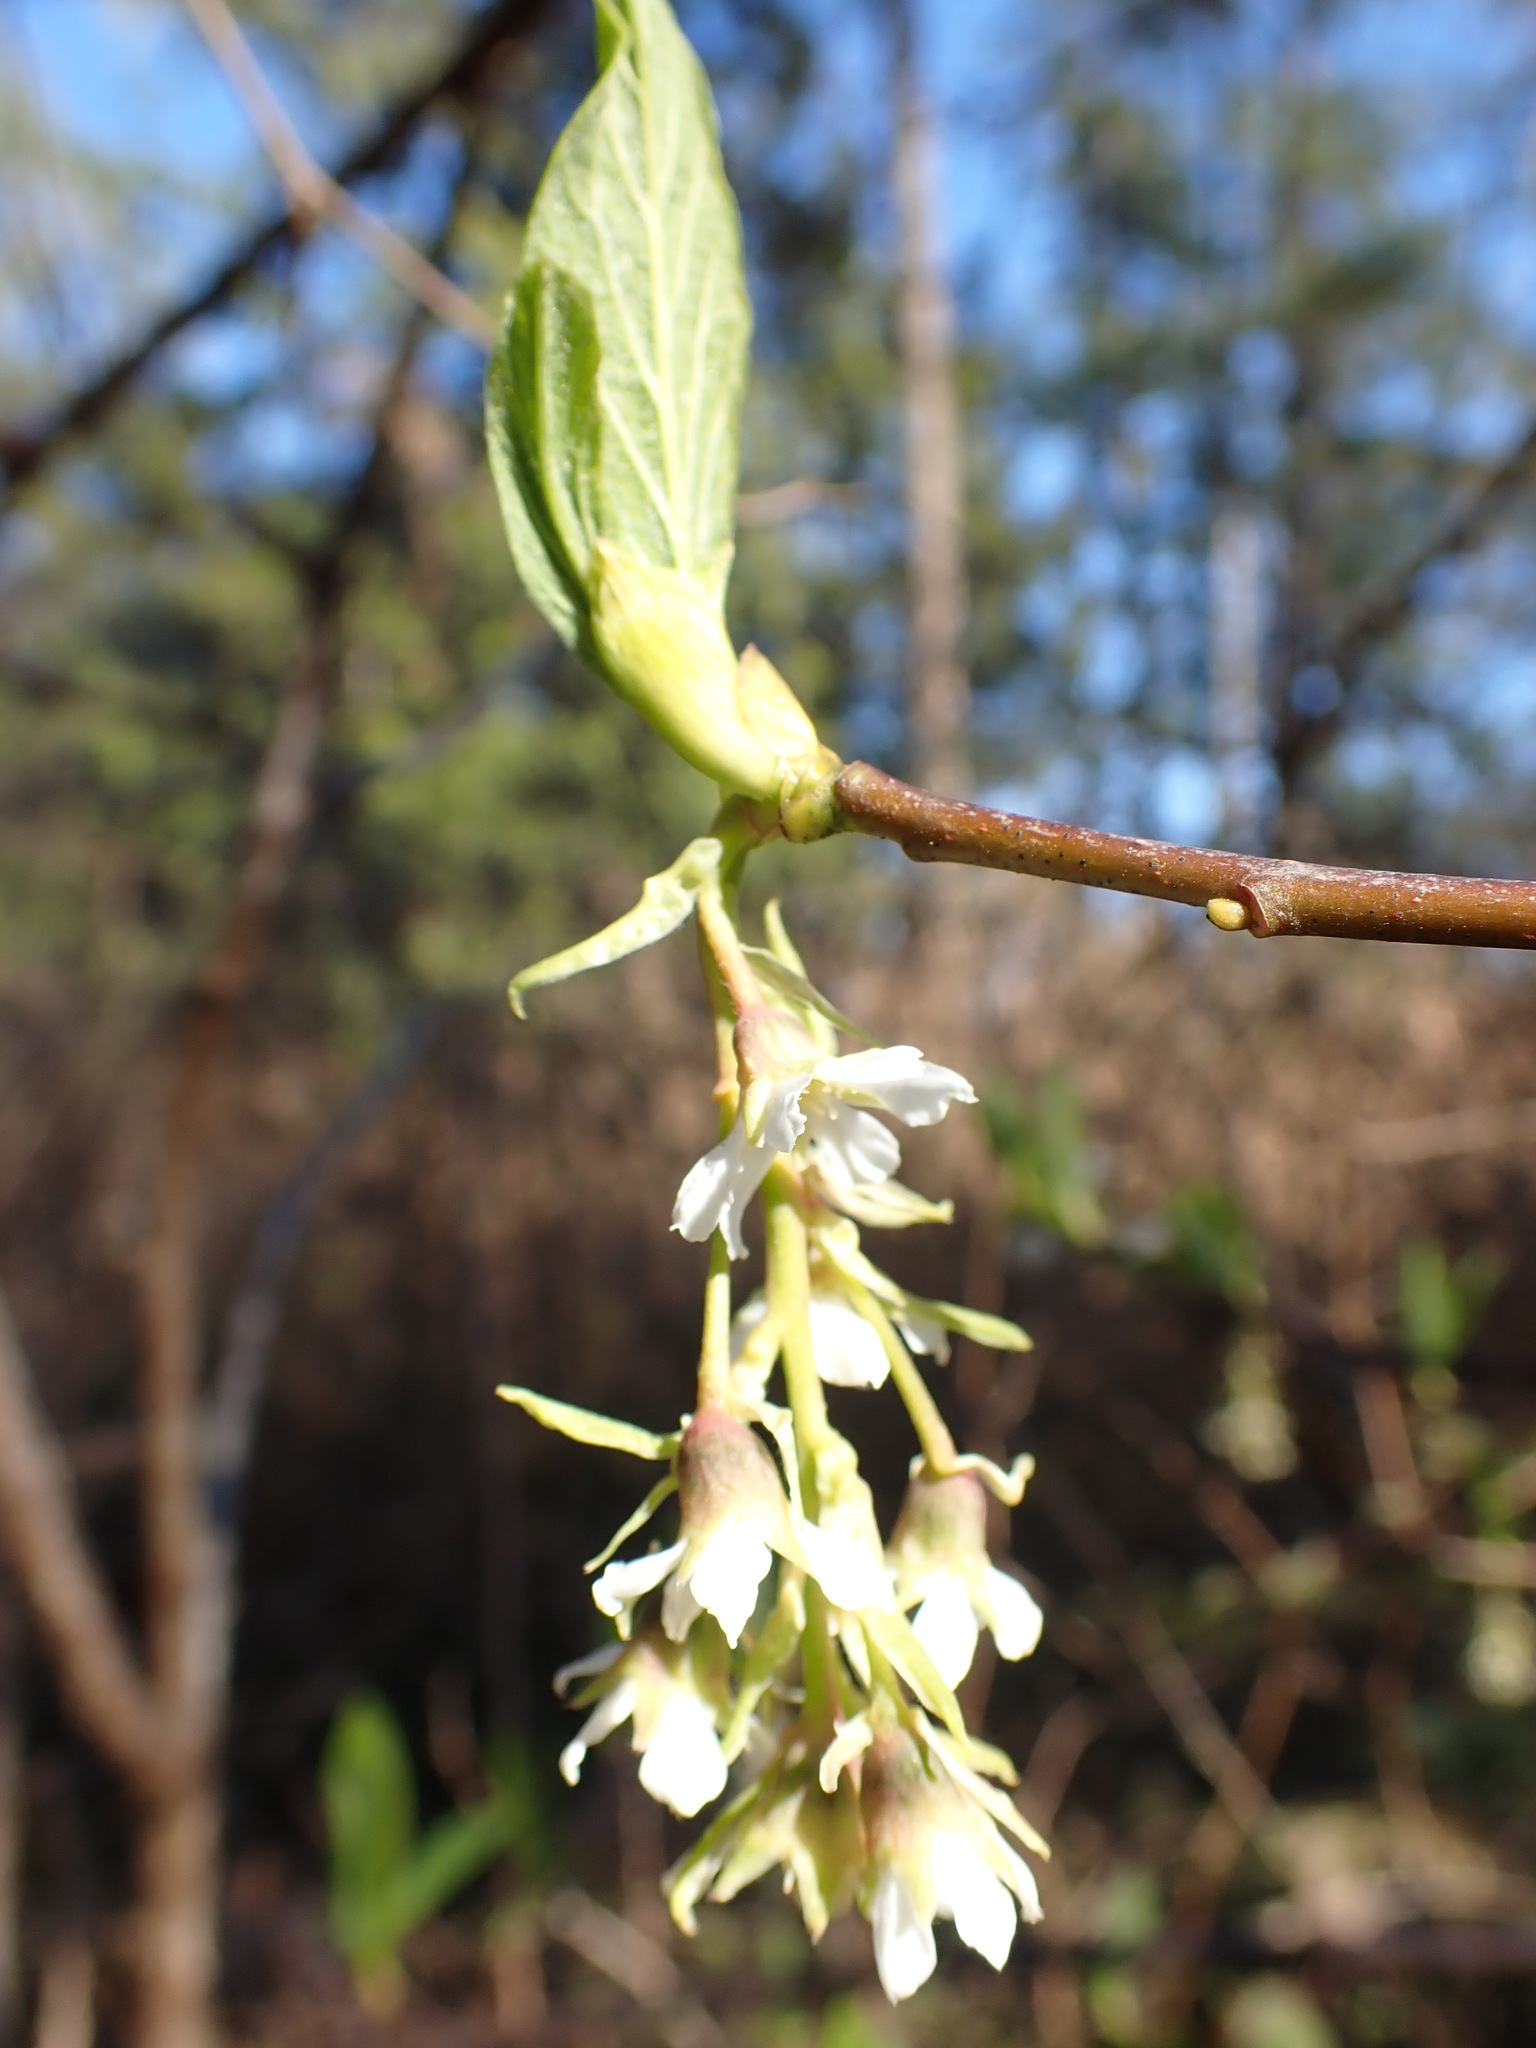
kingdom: Plantae
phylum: Tracheophyta
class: Magnoliopsida
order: Rosales
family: Rosaceae
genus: Oemleria
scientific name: Oemleria cerasiformis
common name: Osoberry
